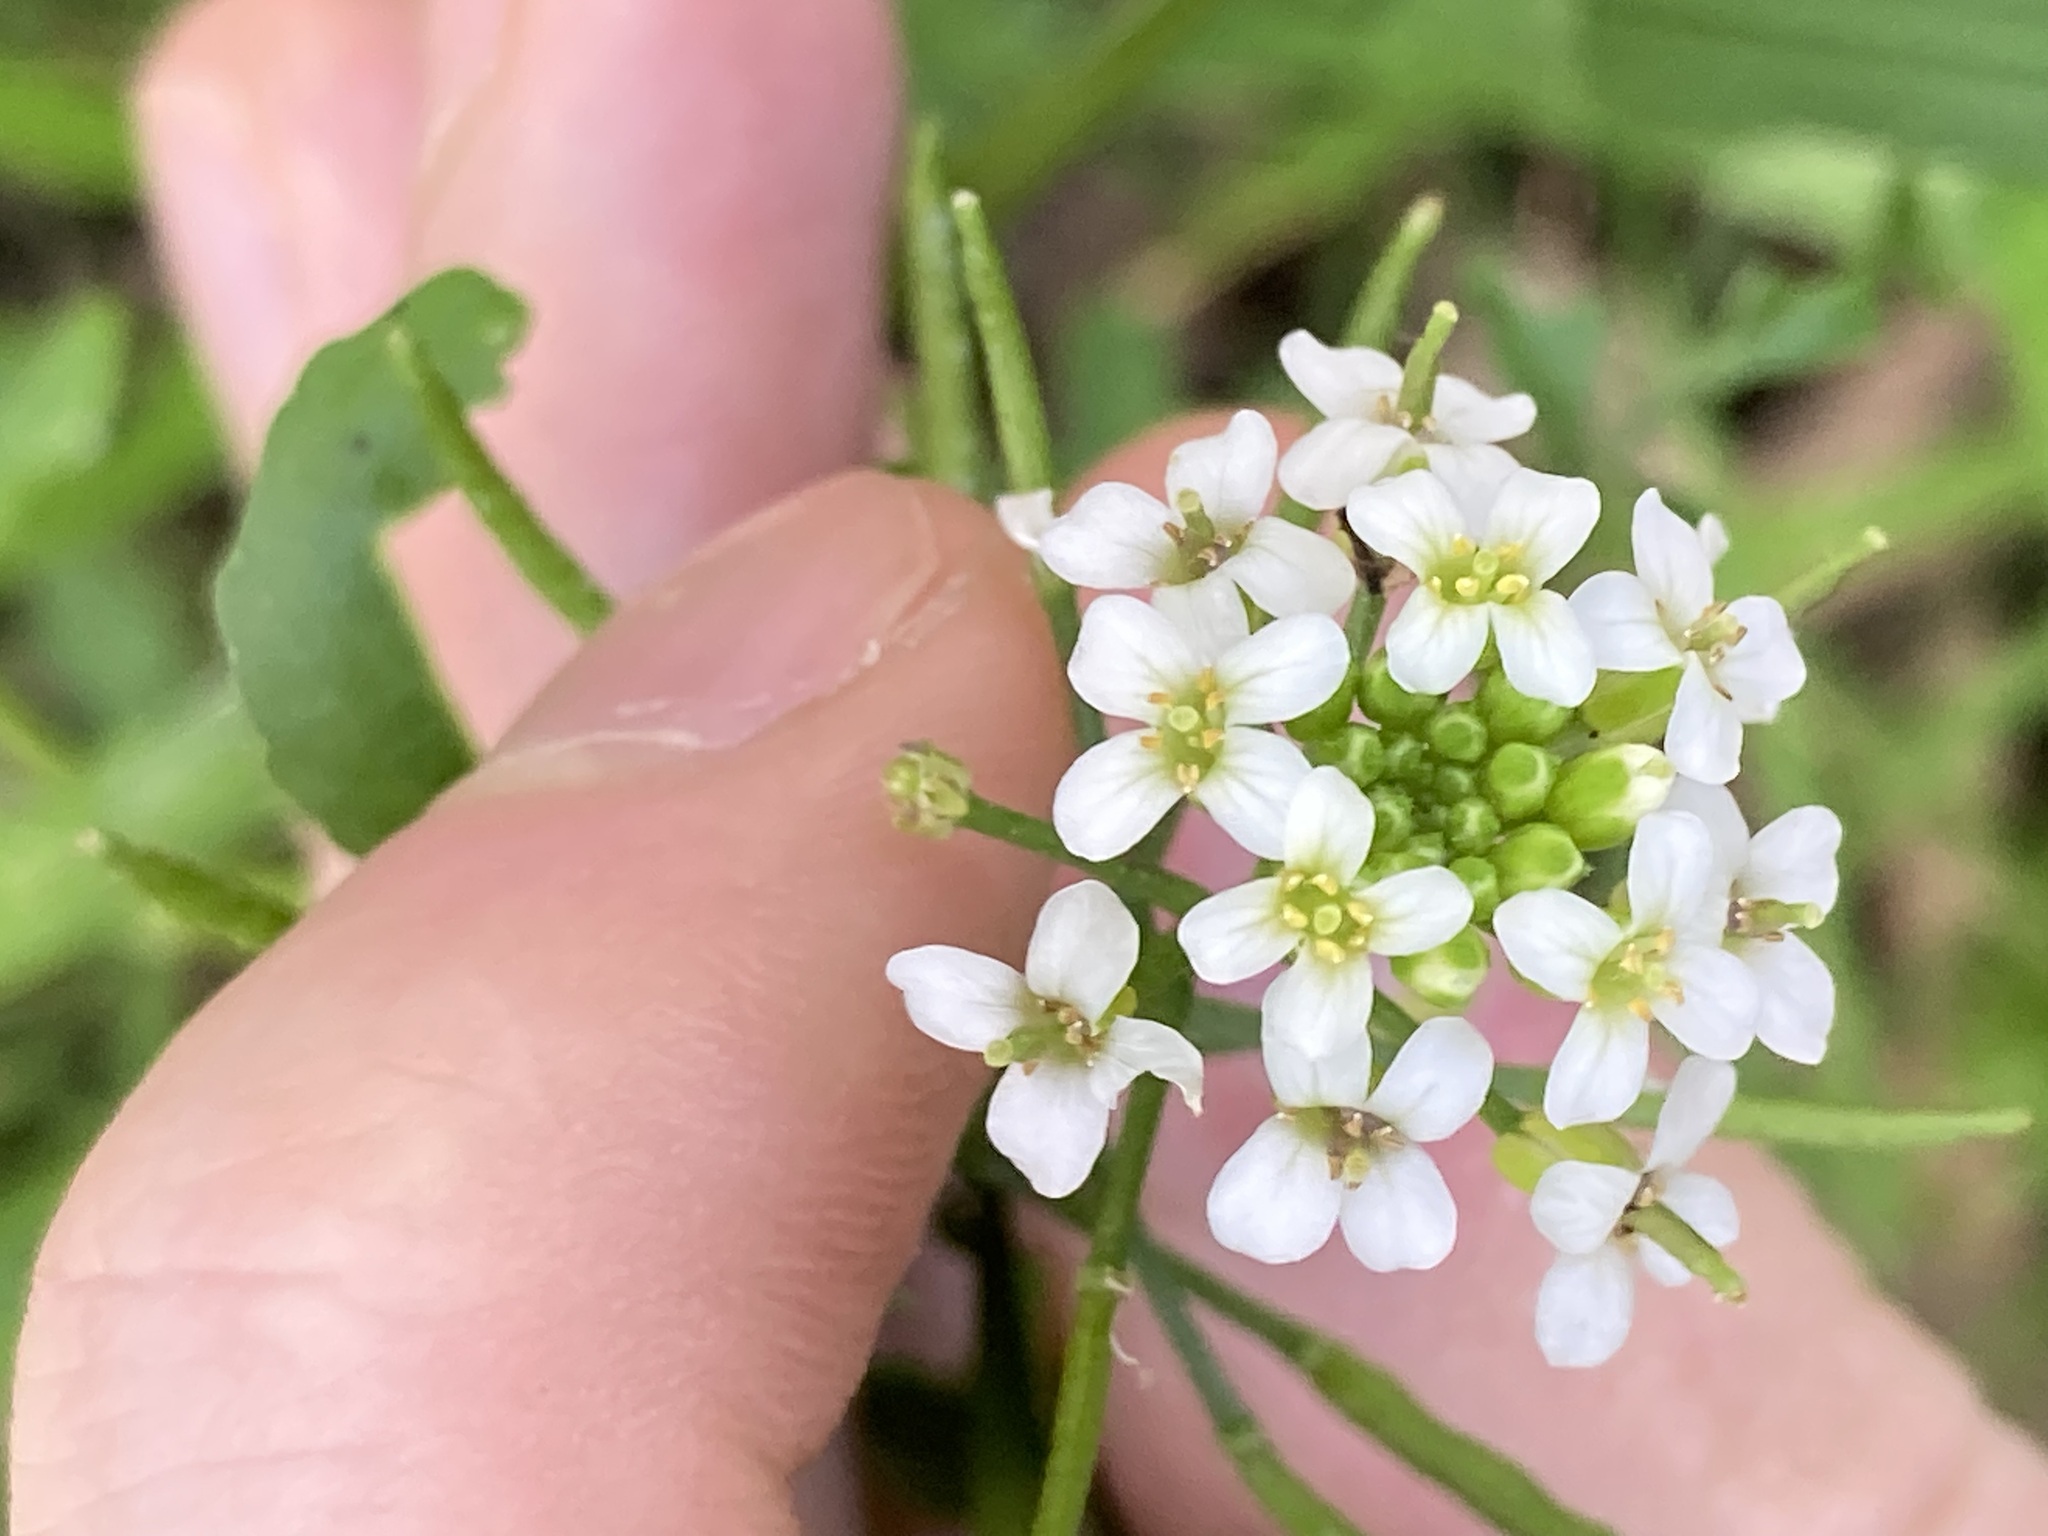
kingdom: Plantae
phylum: Tracheophyta
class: Magnoliopsida
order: Brassicales
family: Brassicaceae
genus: Nasturtium
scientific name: Nasturtium officinale
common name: Watercress
